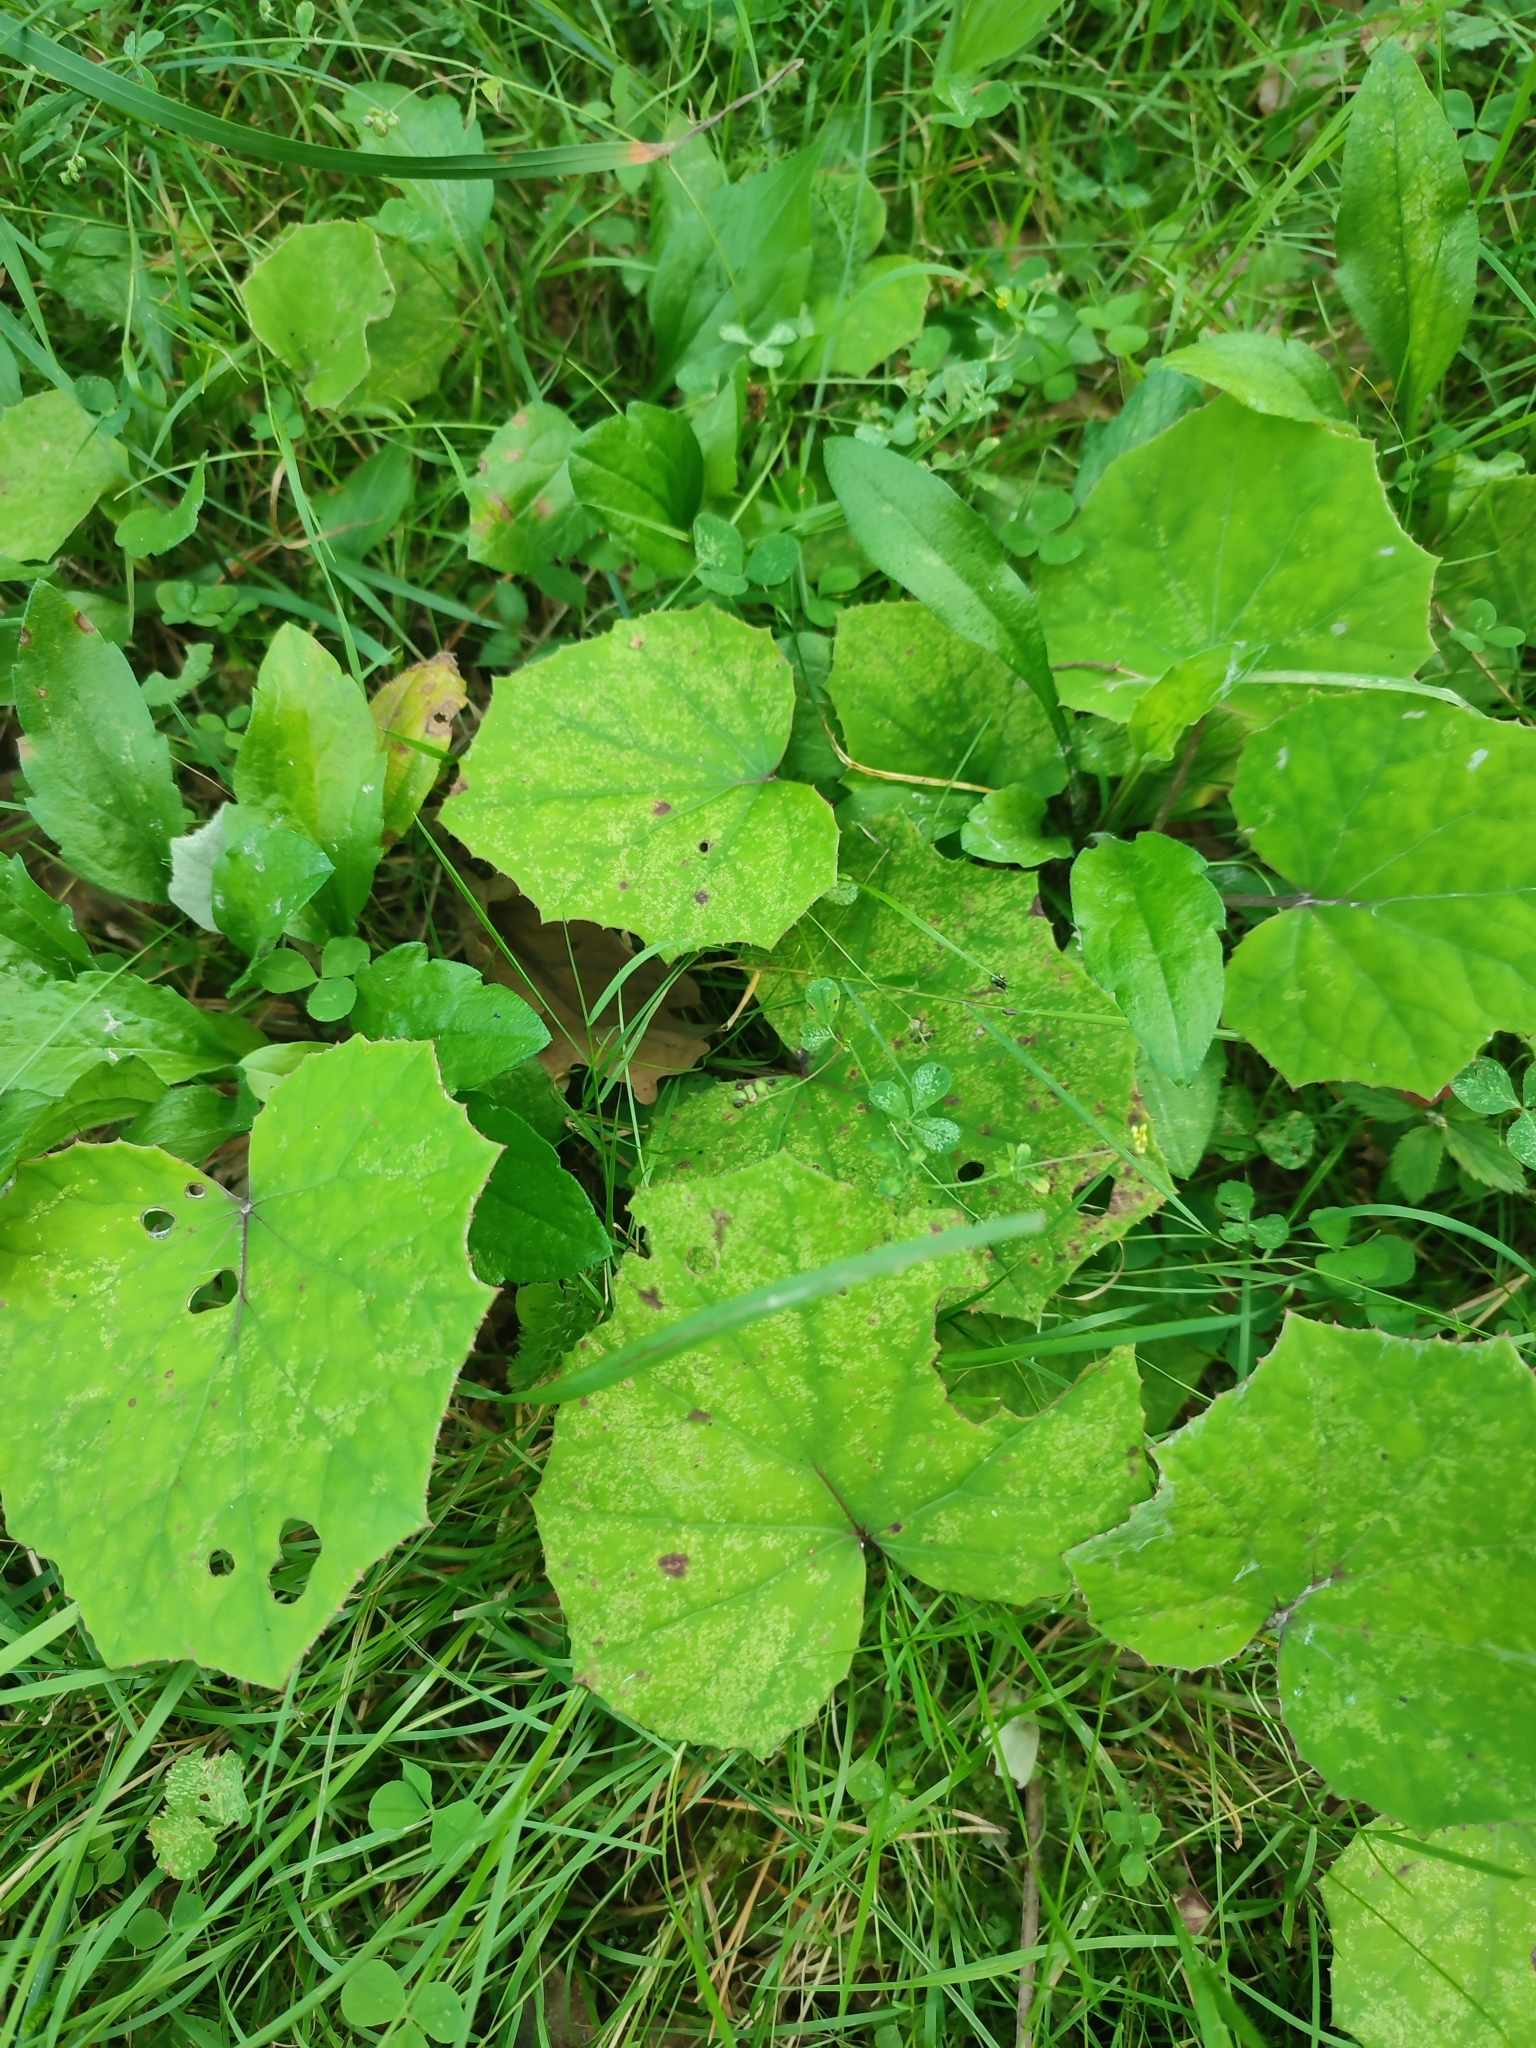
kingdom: Plantae
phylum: Tracheophyta
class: Magnoliopsida
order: Asterales
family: Asteraceae
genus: Tussilago
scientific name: Tussilago farfara
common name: Coltsfoot
